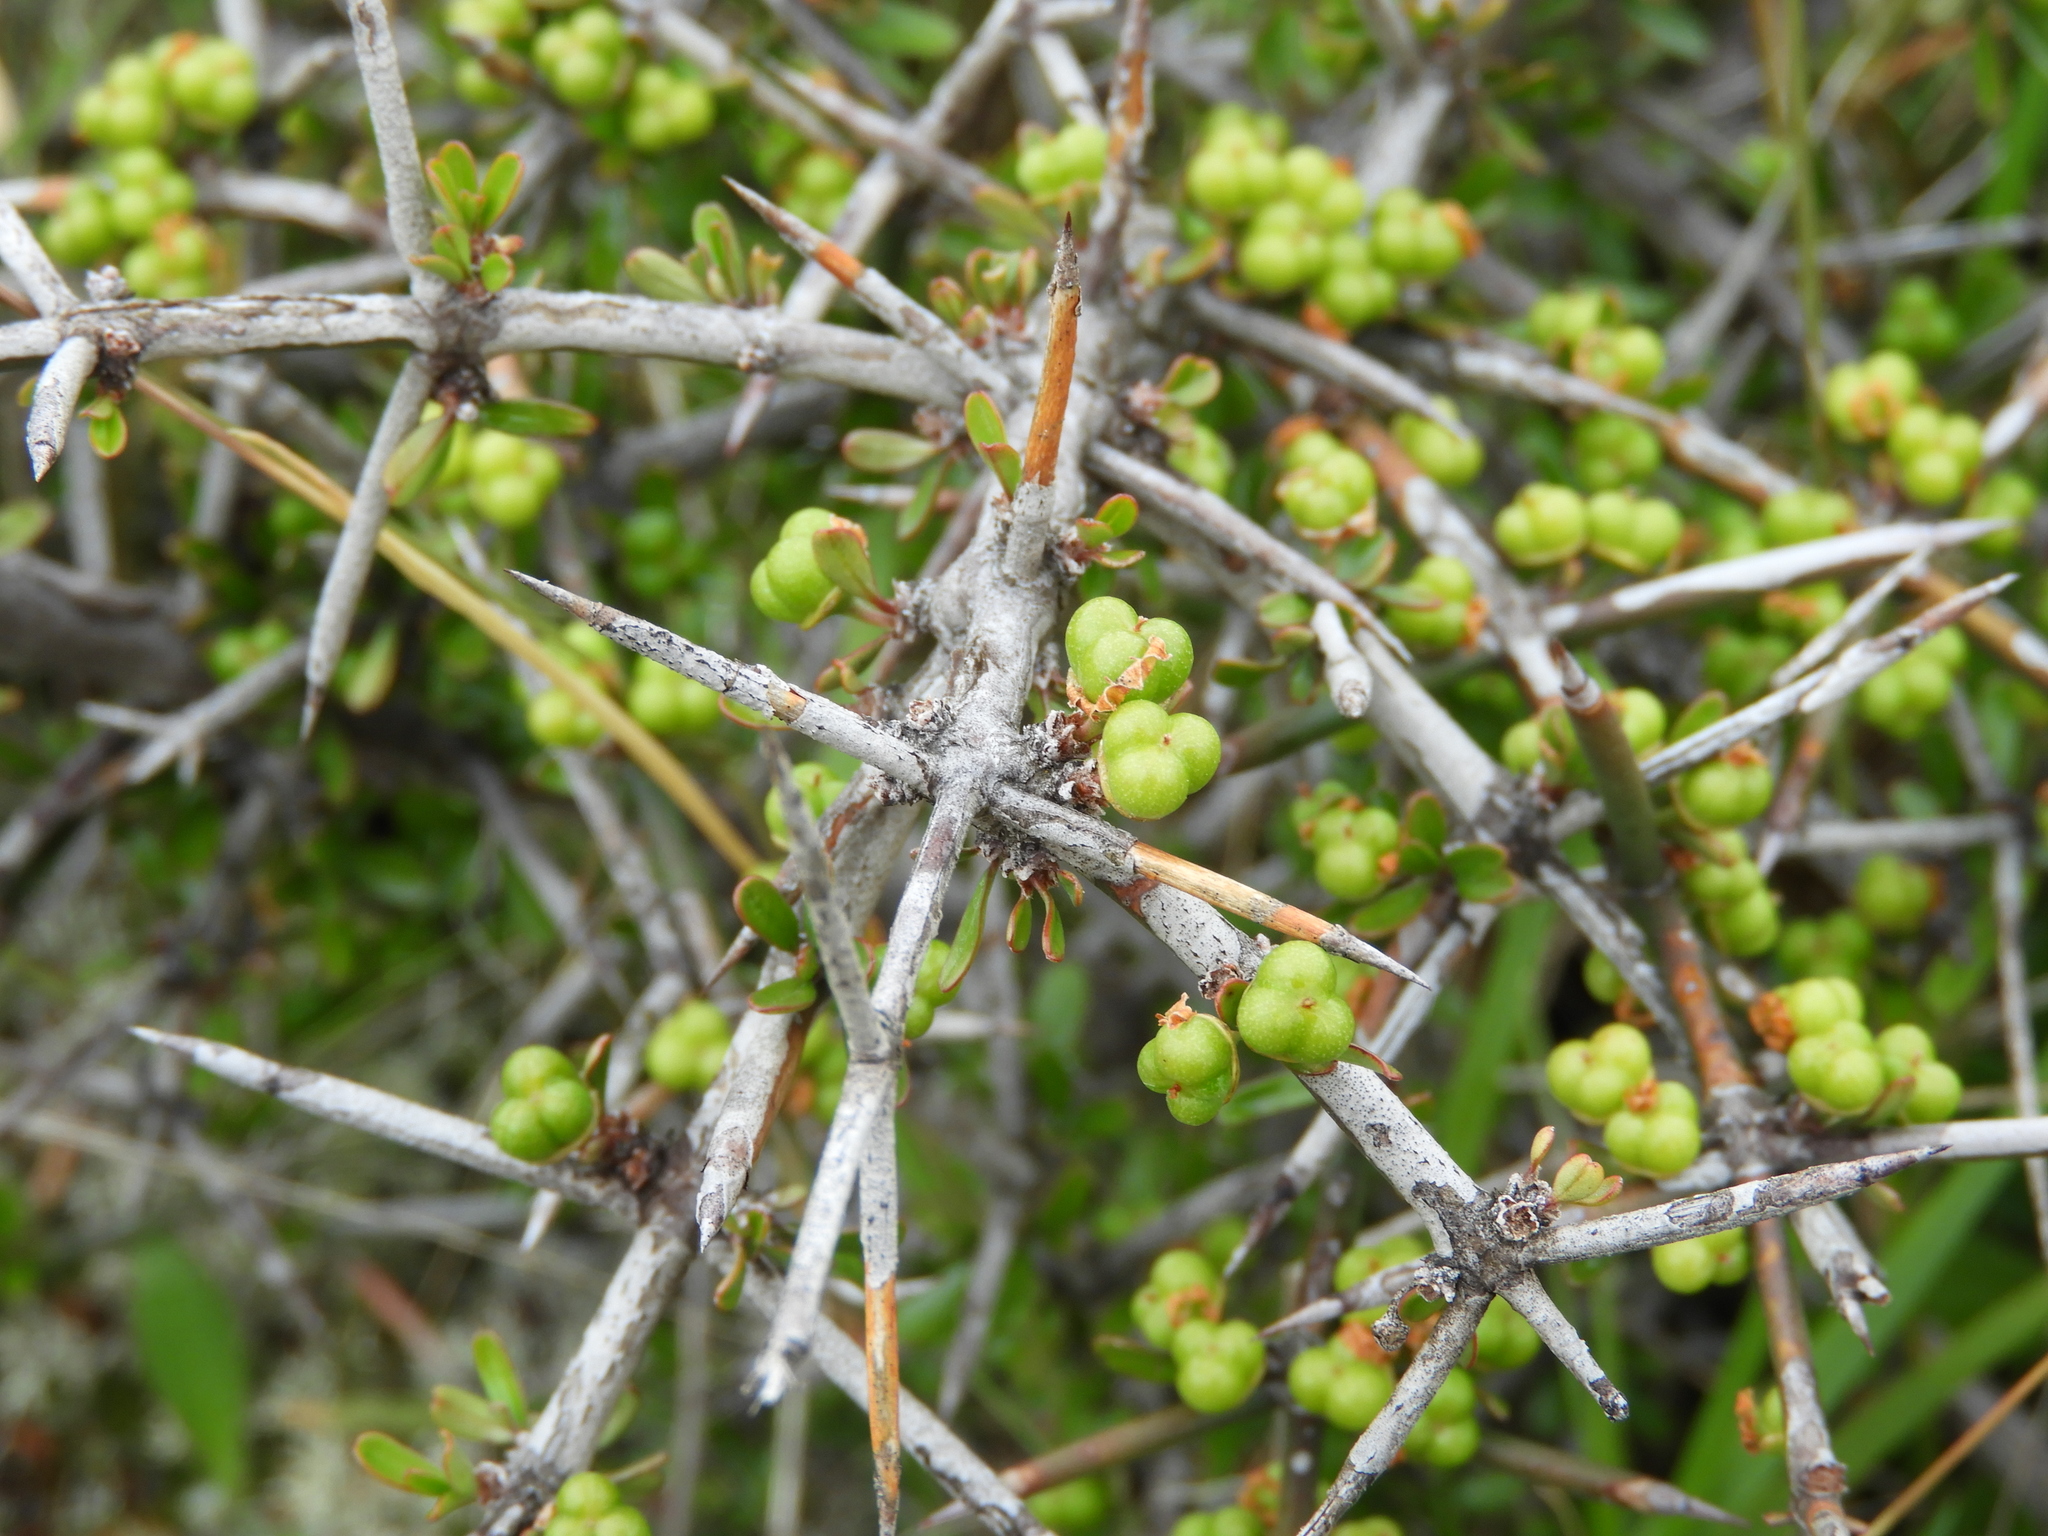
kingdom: Plantae
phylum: Tracheophyta
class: Magnoliopsida
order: Rosales
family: Rhamnaceae
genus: Discaria
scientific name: Discaria toumatou
